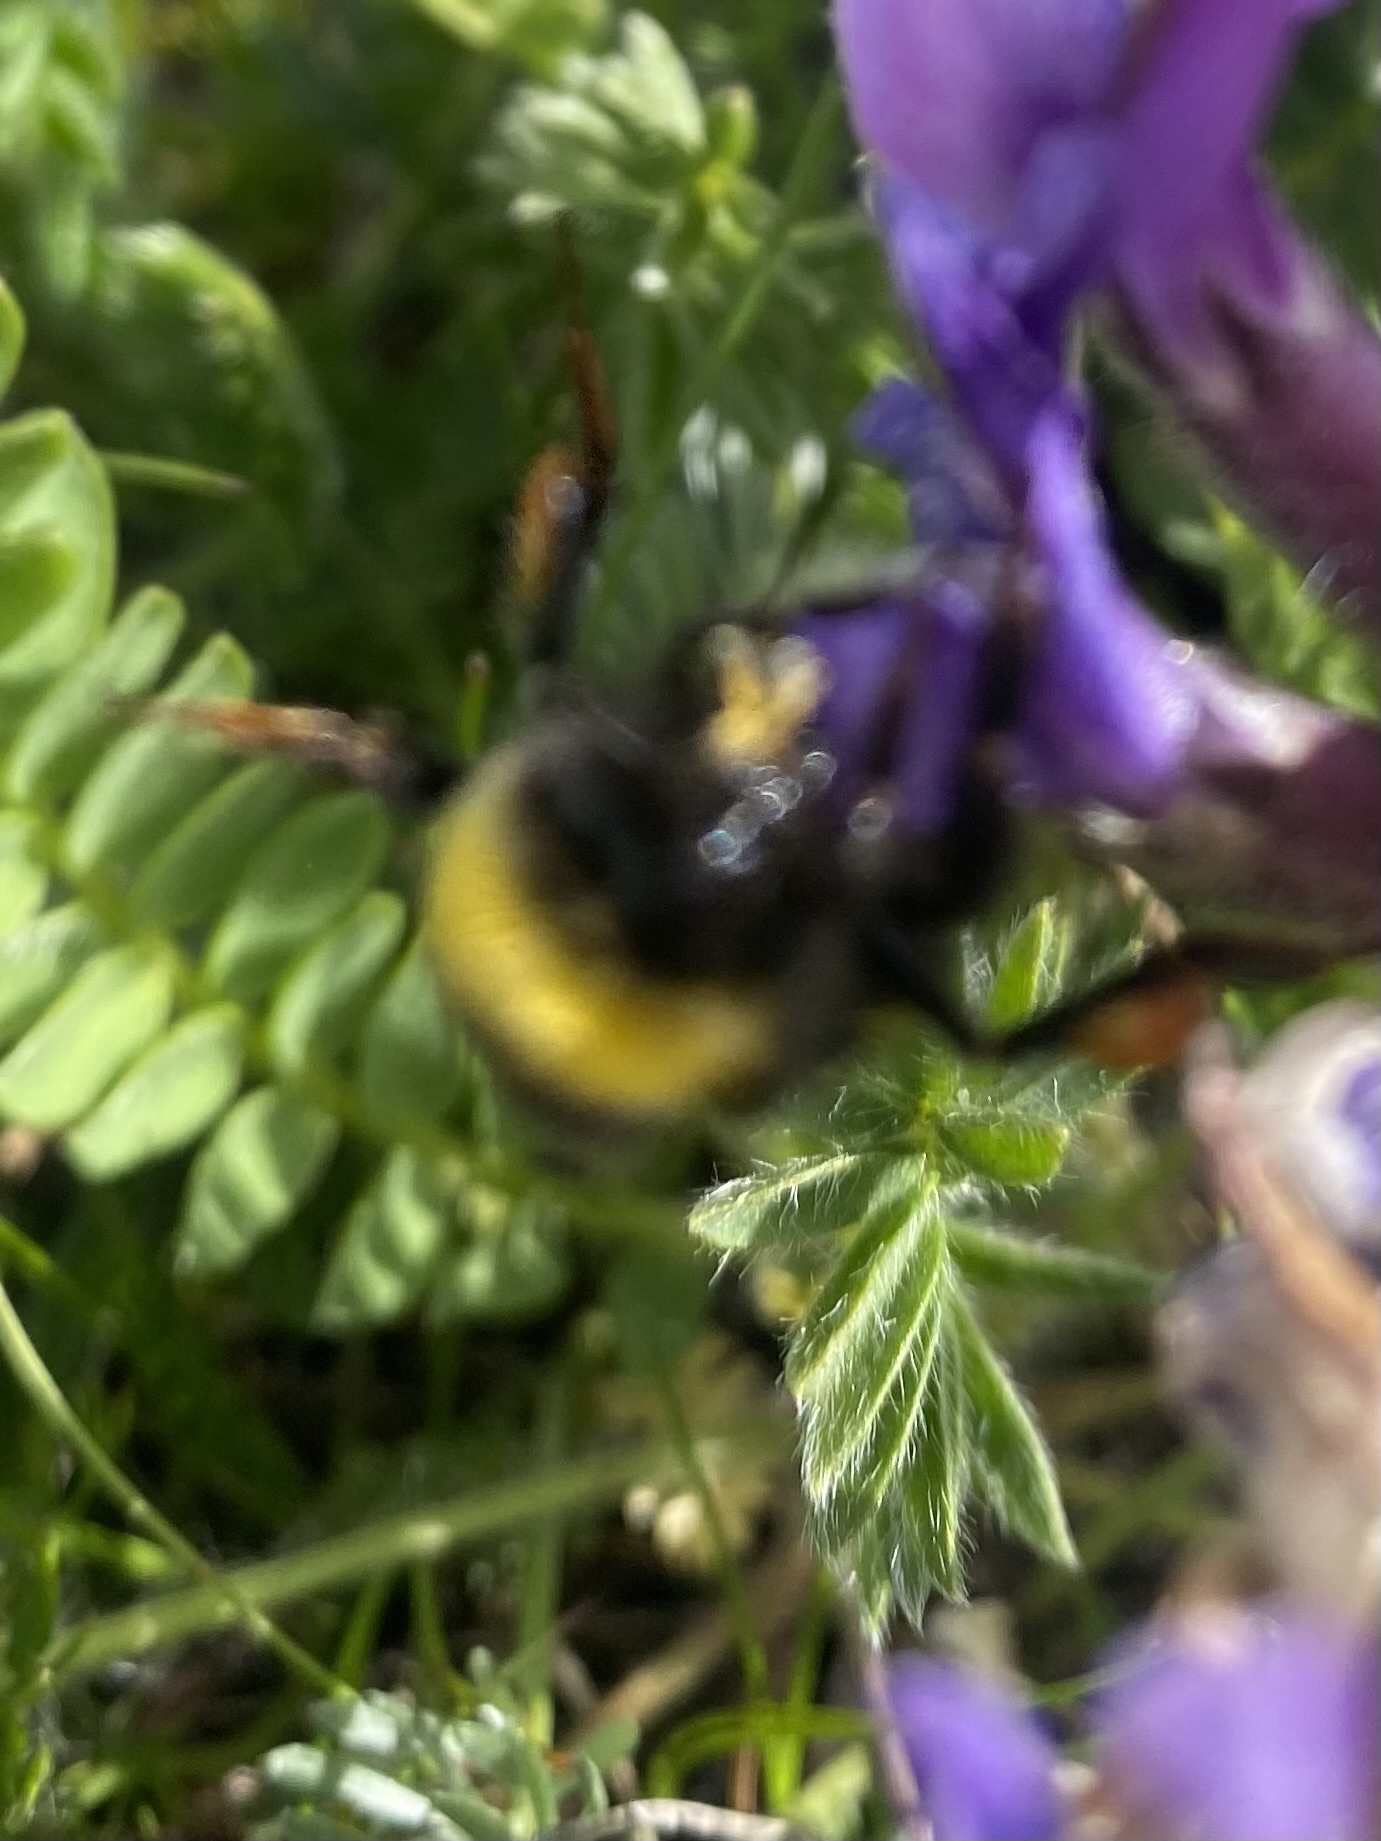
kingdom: Animalia
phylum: Arthropoda
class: Insecta
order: Hymenoptera
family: Apidae
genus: Bombus
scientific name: Bombus
